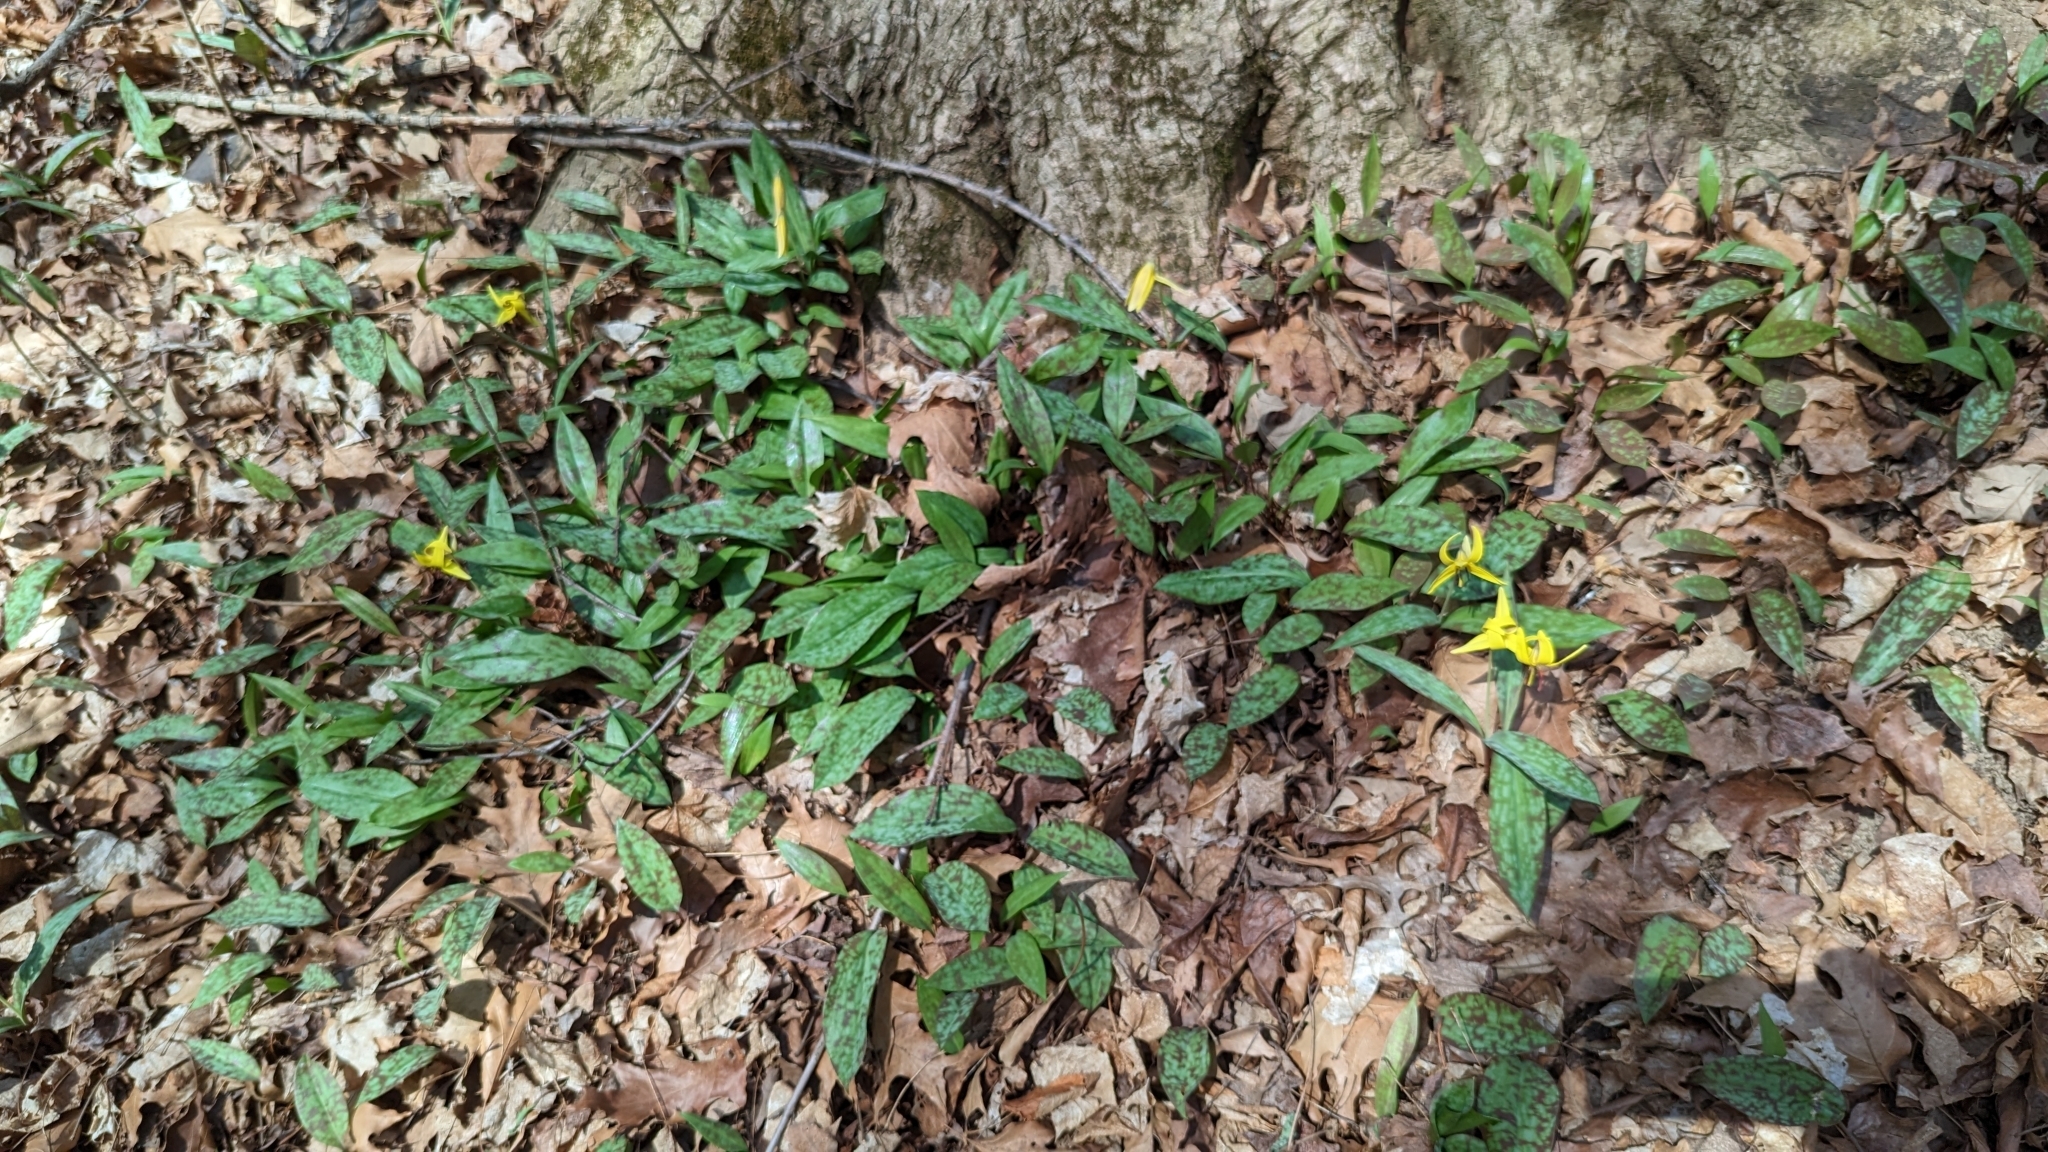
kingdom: Plantae
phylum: Tracheophyta
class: Liliopsida
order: Liliales
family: Liliaceae
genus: Erythronium
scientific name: Erythronium americanum
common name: Yellow adder's-tongue
